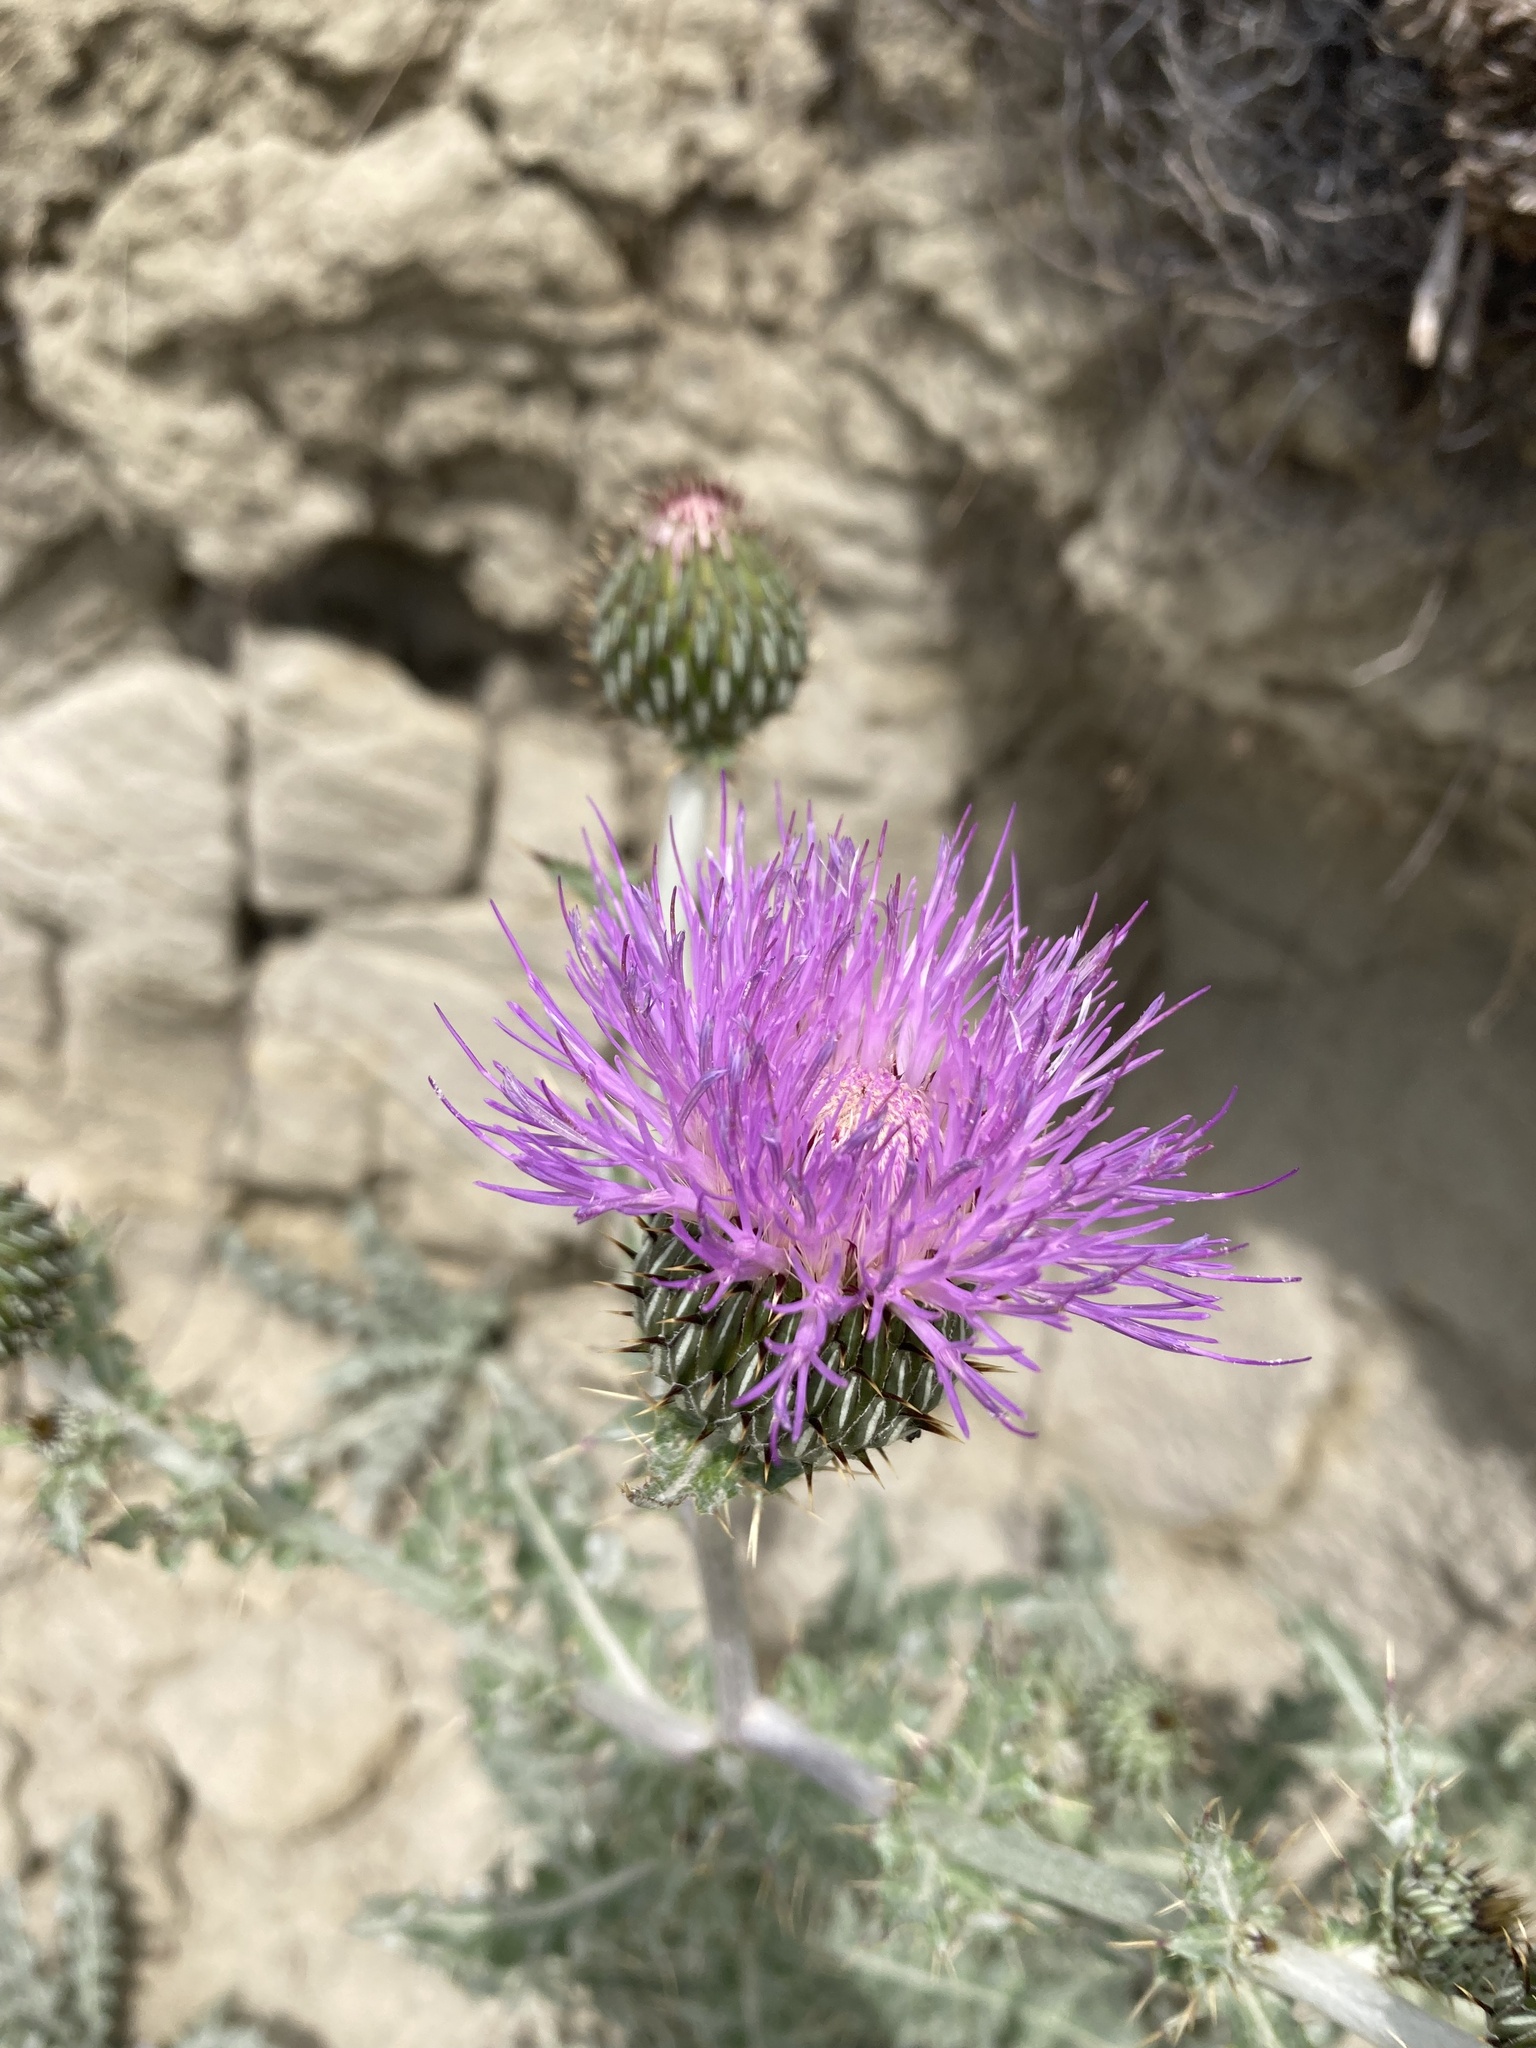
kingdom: Plantae
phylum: Tracheophyta
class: Magnoliopsida
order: Asterales
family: Asteraceae
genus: Cirsium
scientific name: Cirsium undulatum
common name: Pasture thistle
